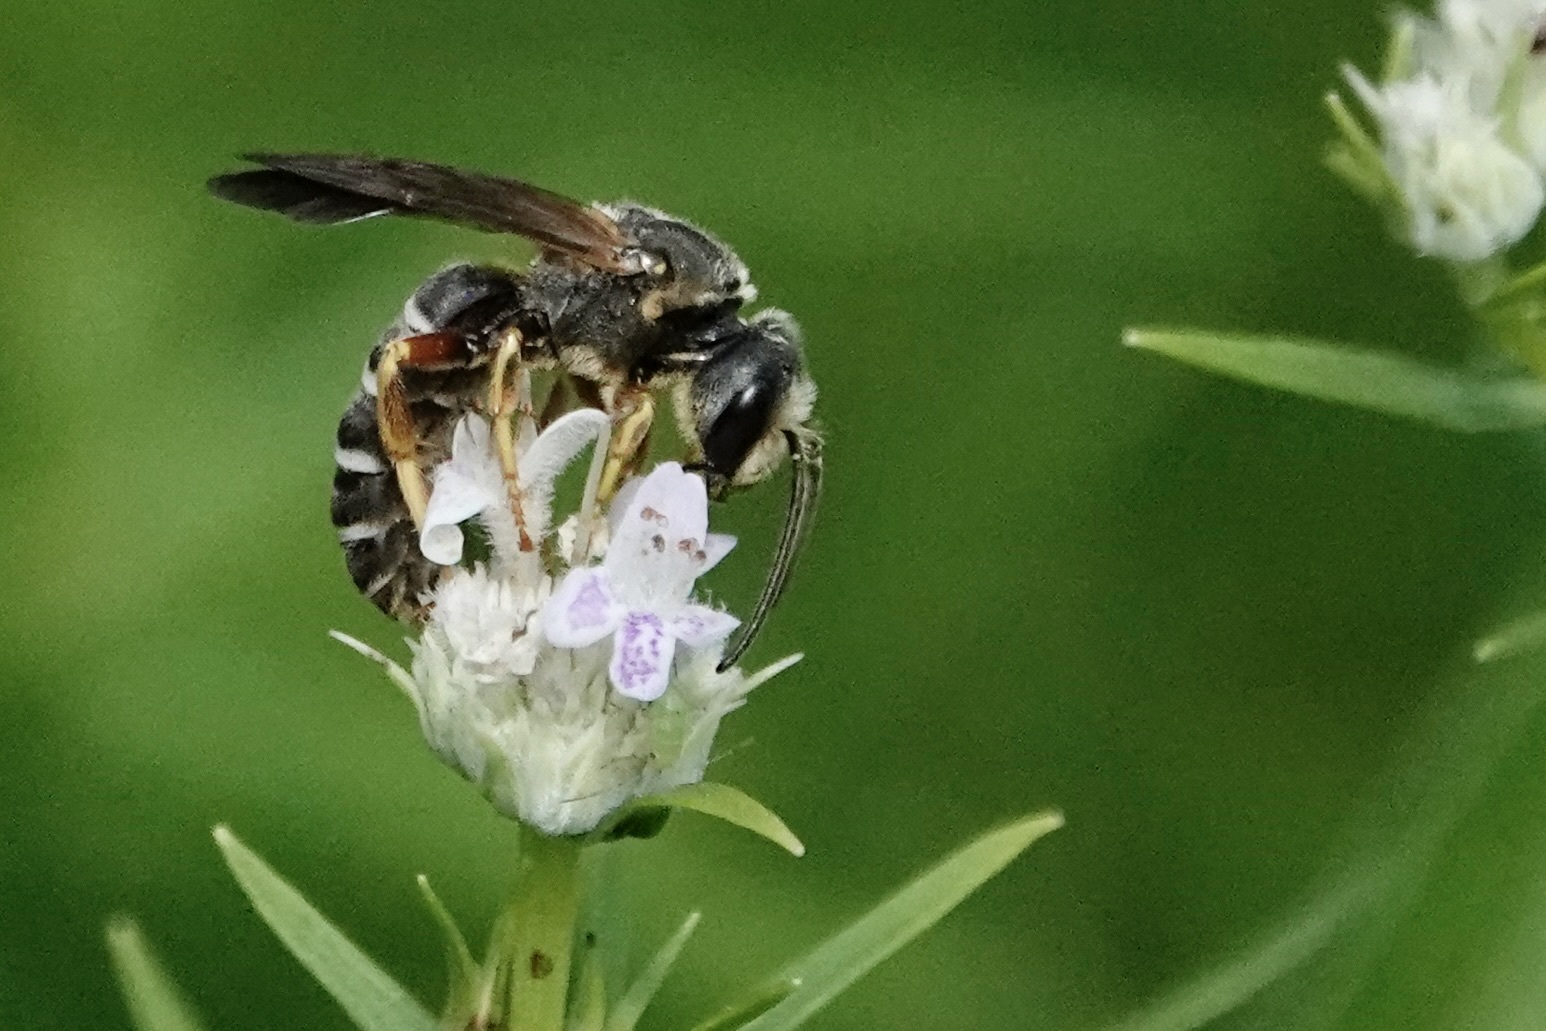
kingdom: Animalia
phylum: Arthropoda
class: Insecta
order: Hymenoptera
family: Halictidae
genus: Halictus
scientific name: Halictus parallelus
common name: Parallel-striped sweat bee
